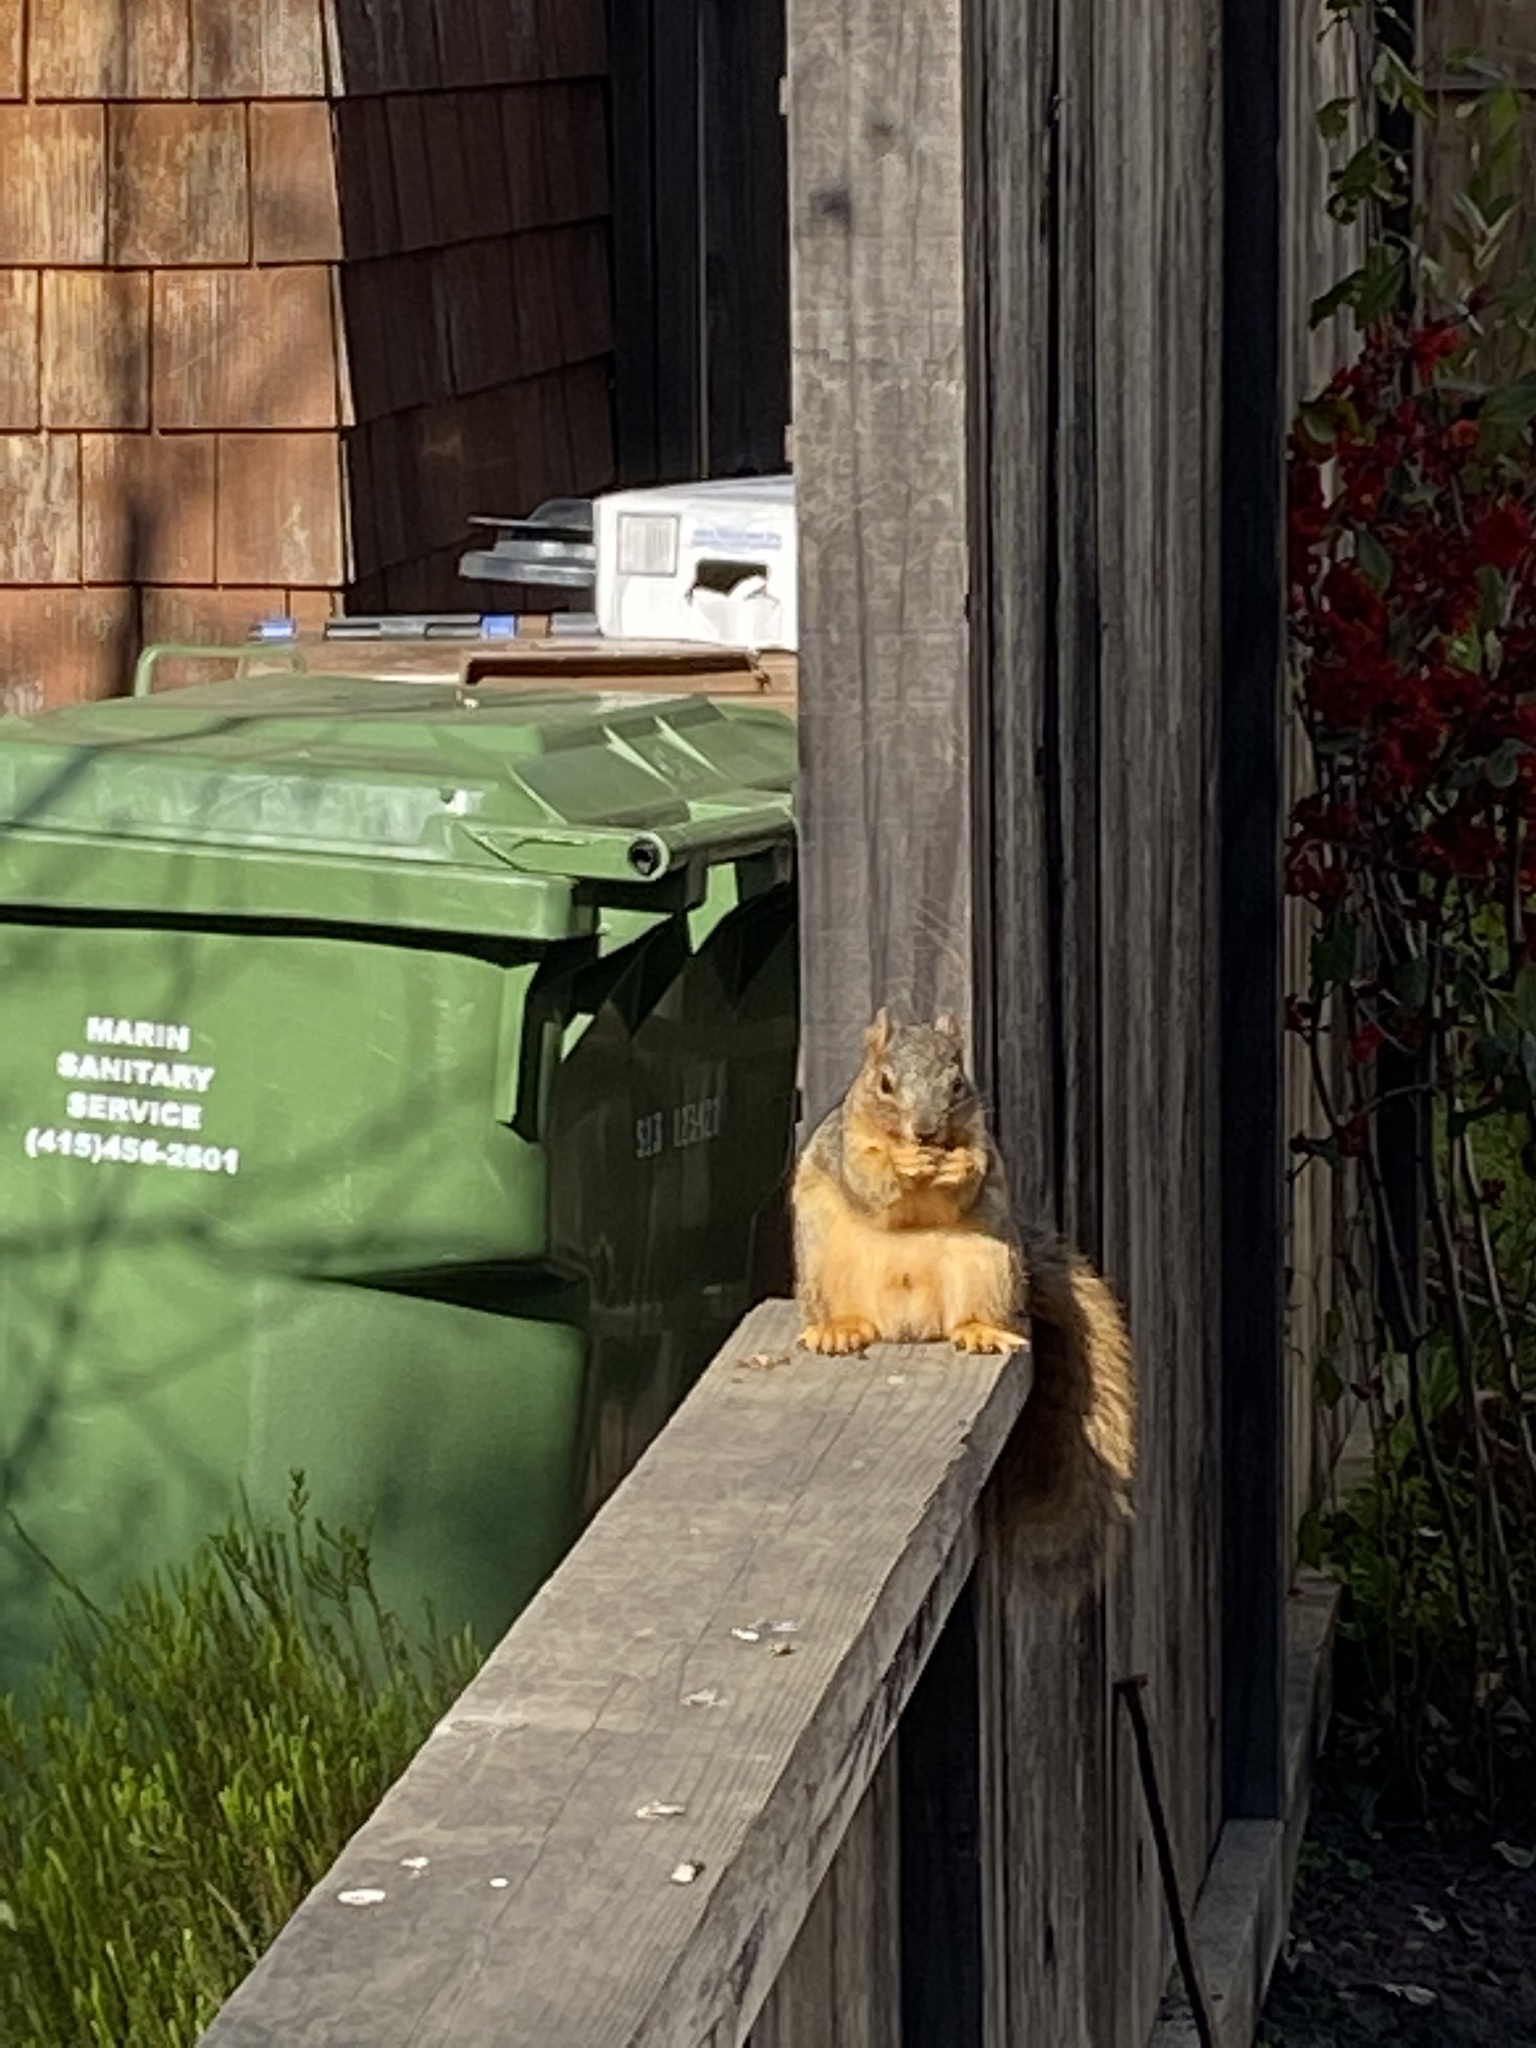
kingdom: Animalia
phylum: Chordata
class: Mammalia
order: Rodentia
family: Sciuridae
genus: Sciurus
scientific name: Sciurus niger
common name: Fox squirrel
